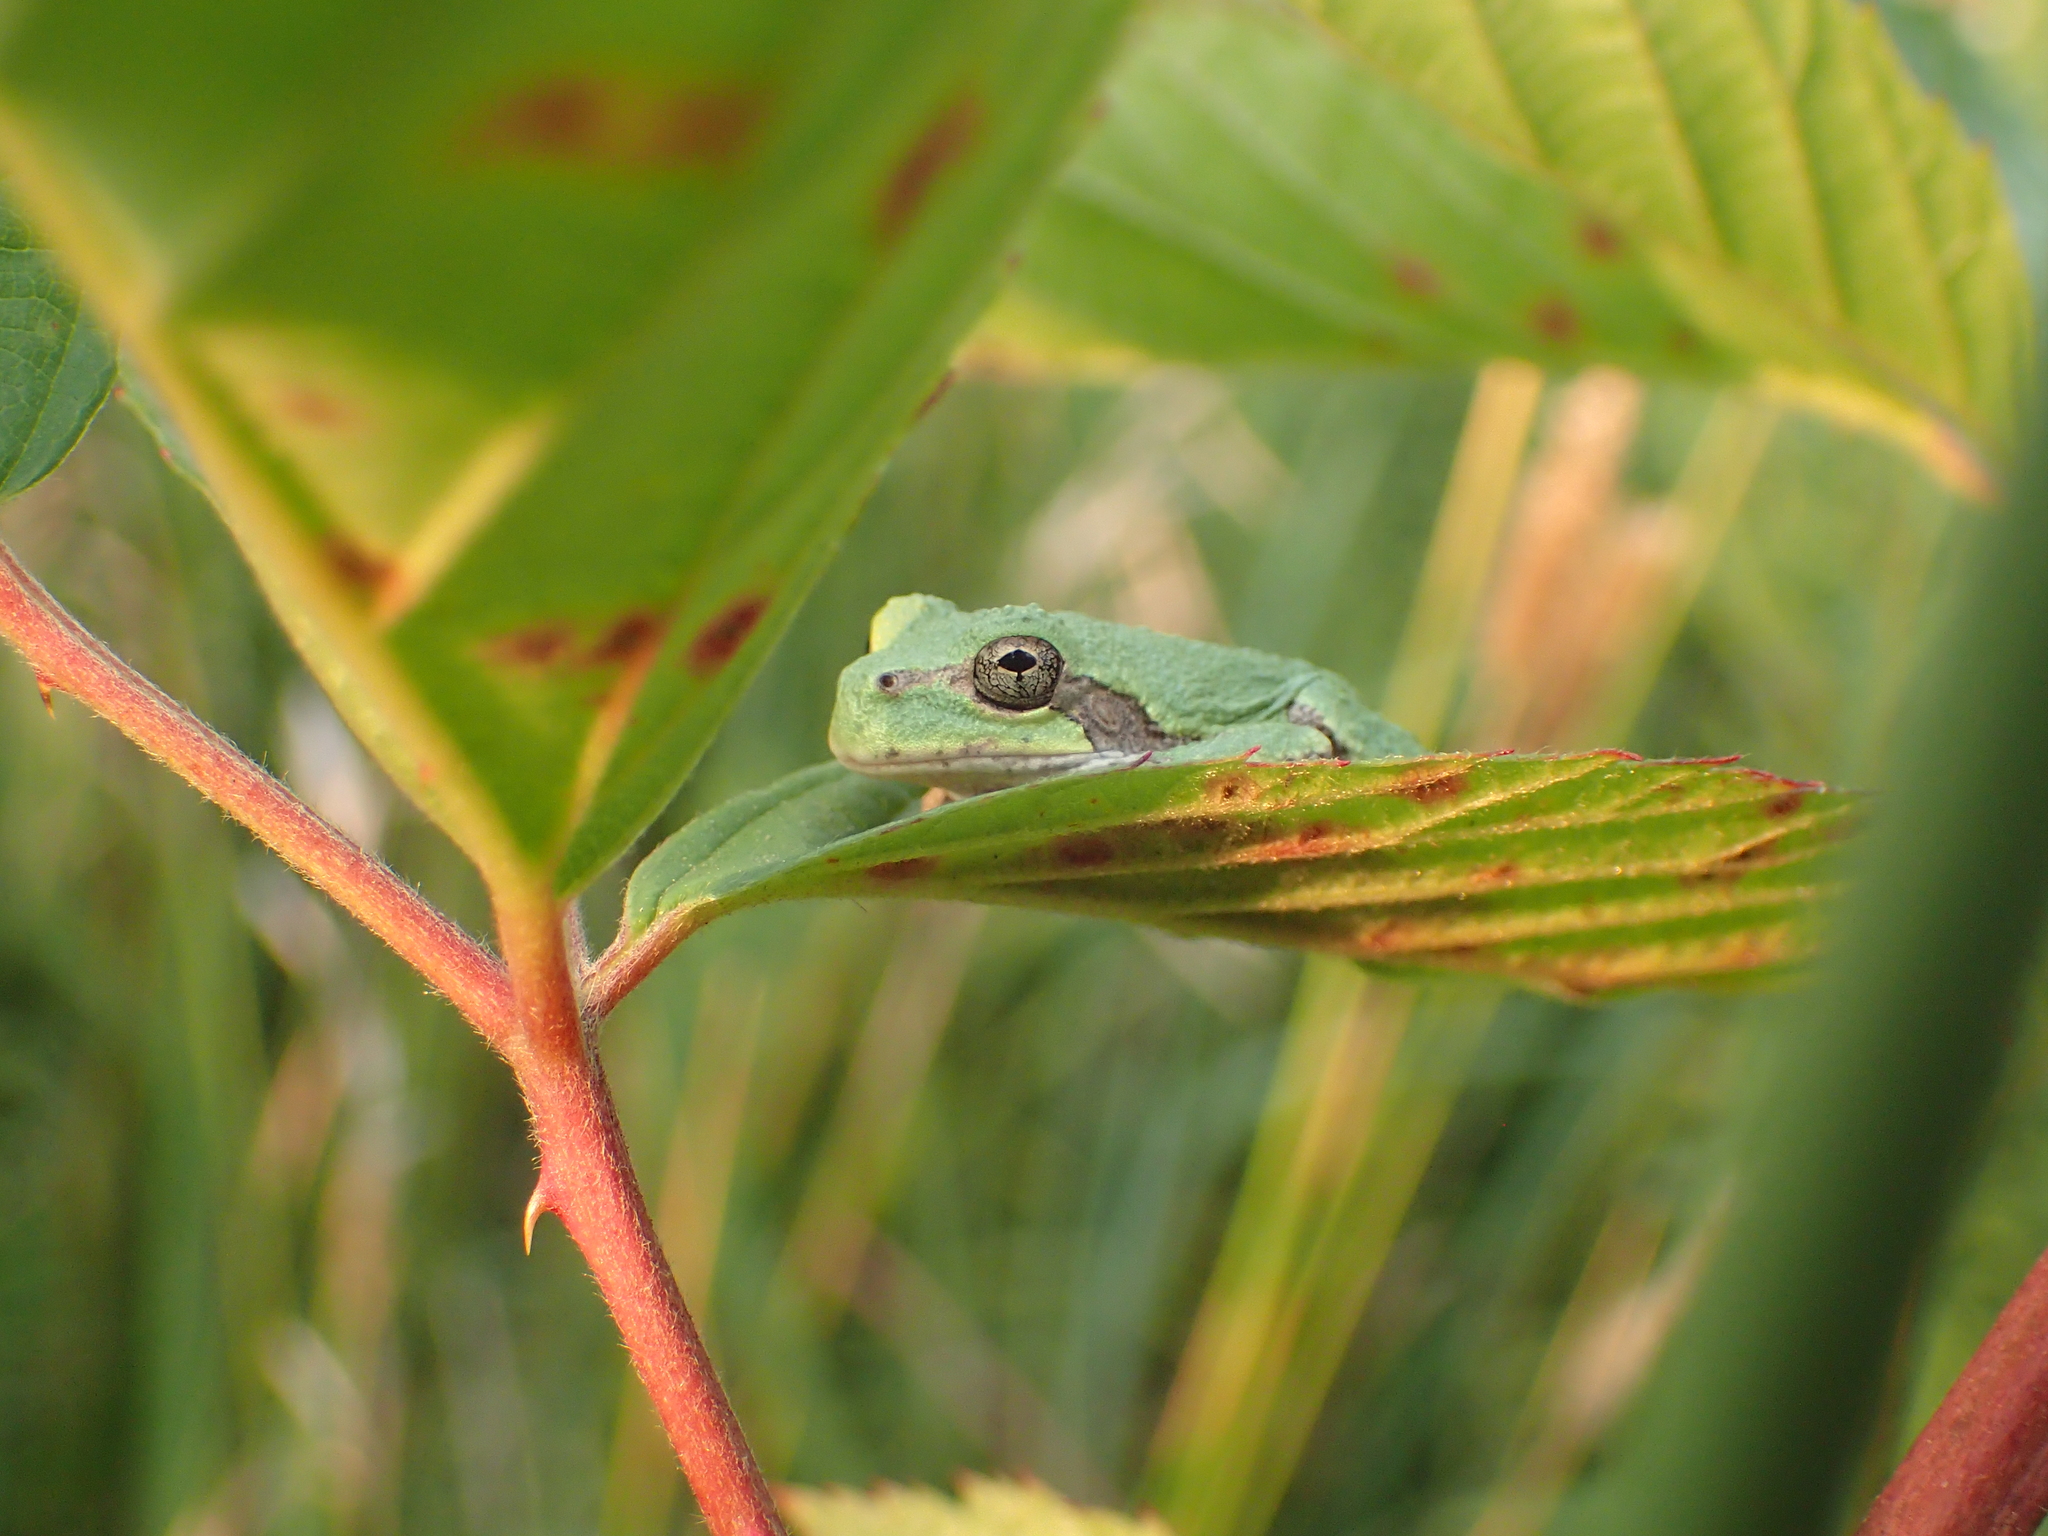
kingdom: Animalia
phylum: Chordata
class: Amphibia
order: Anura
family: Hylidae
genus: Hyla
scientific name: Hyla
